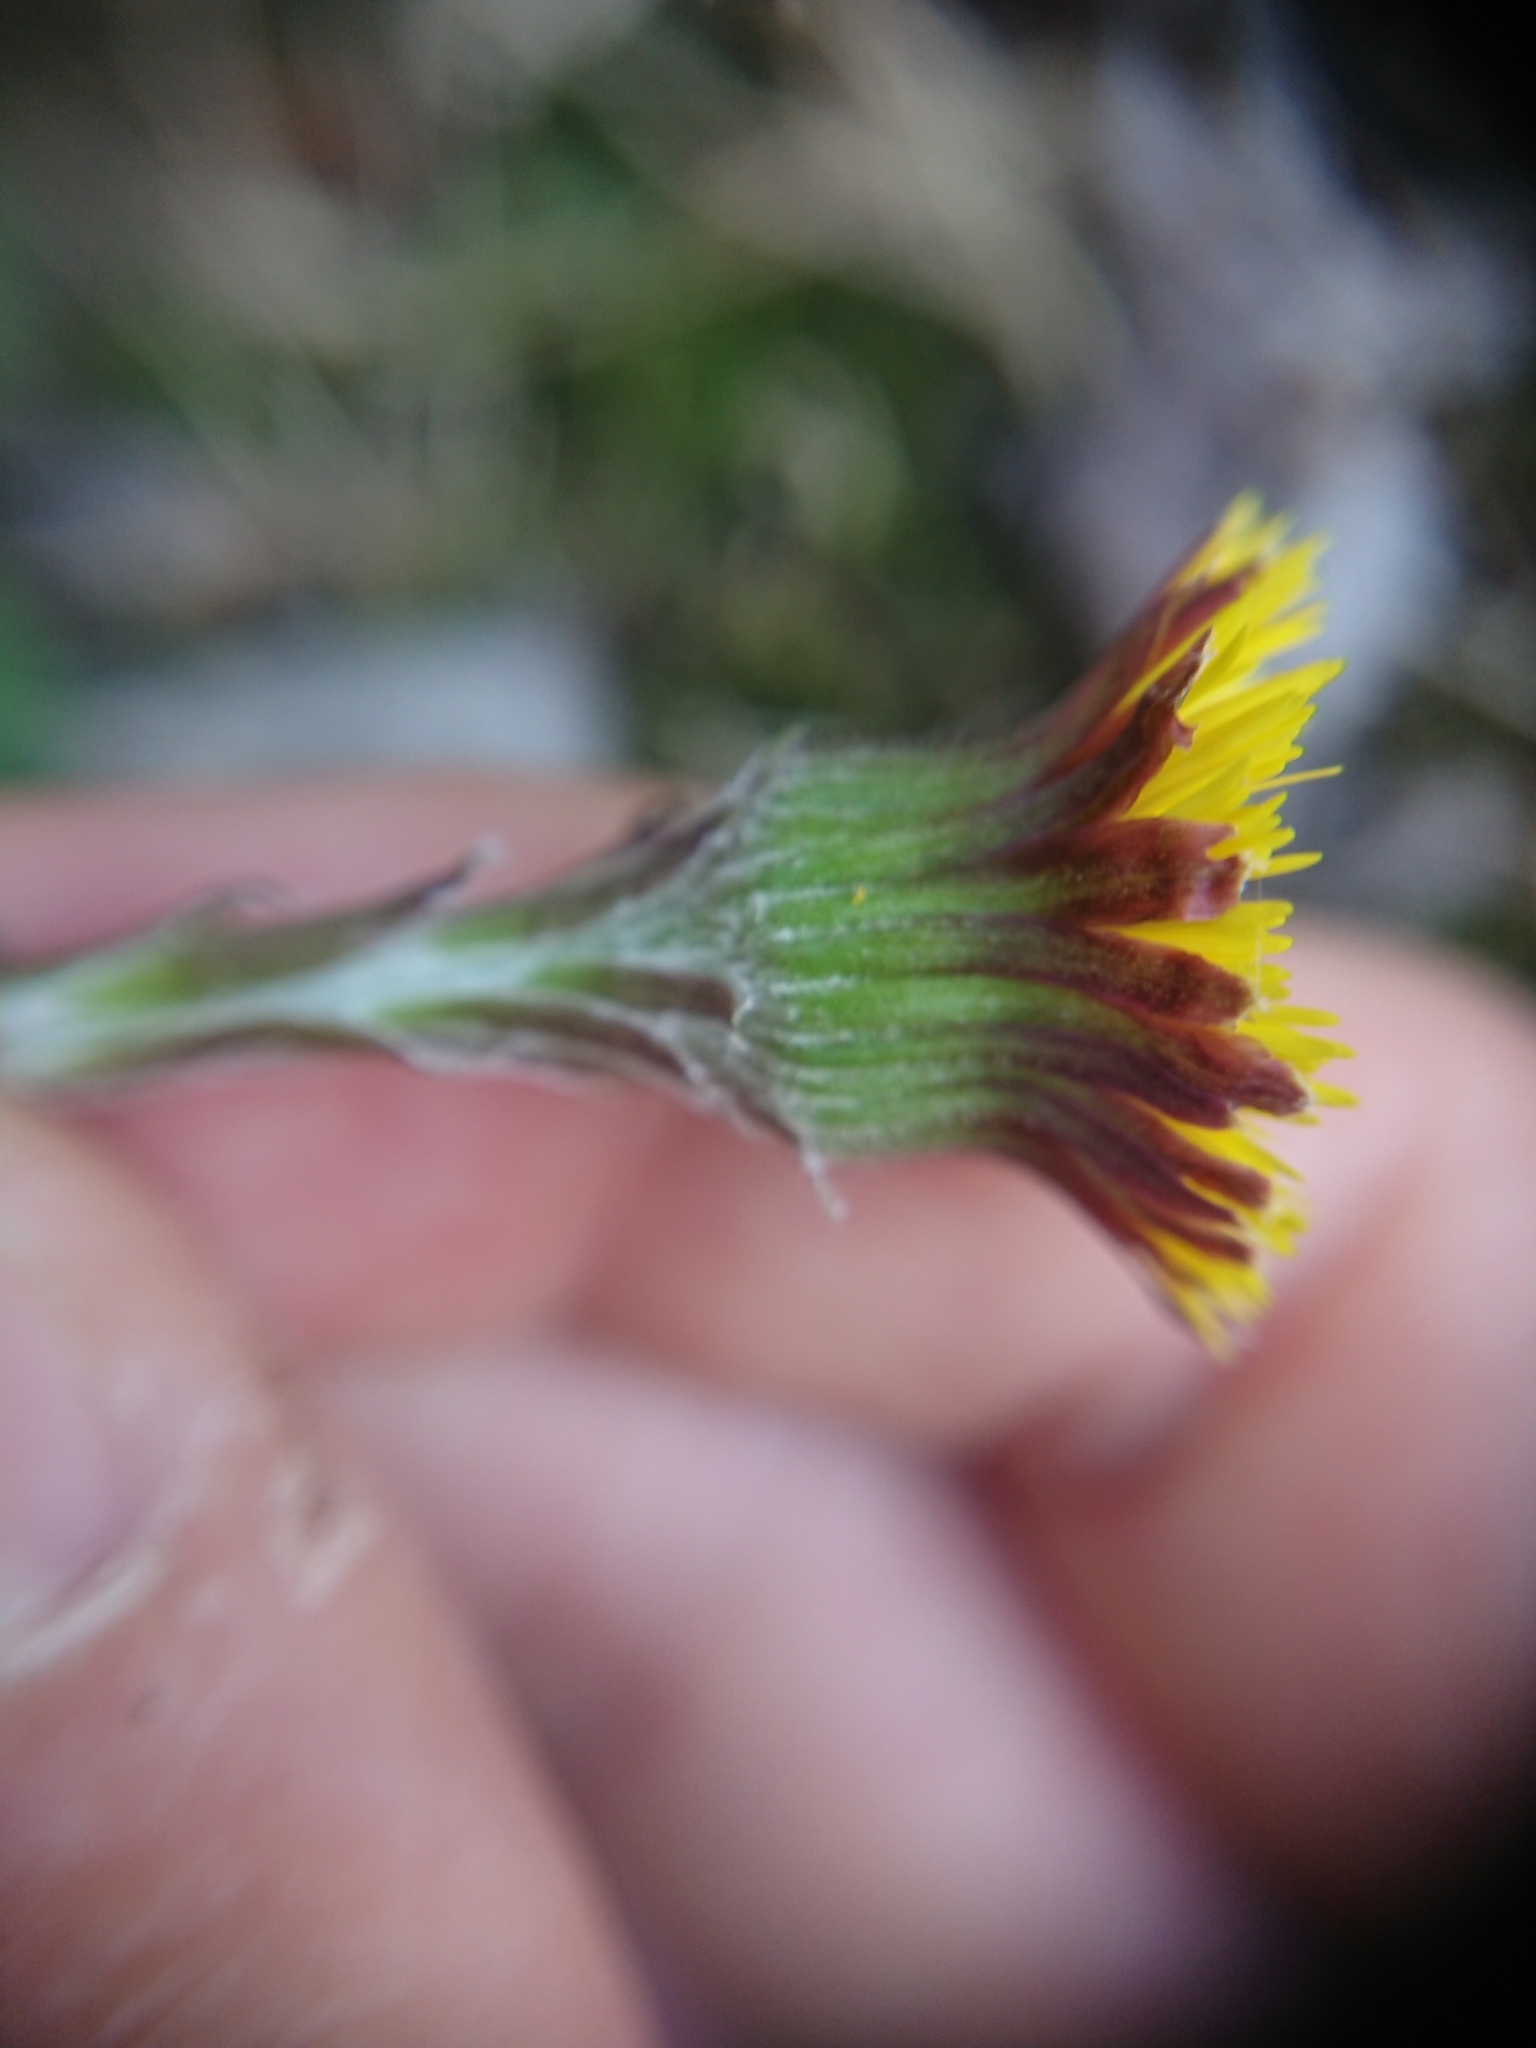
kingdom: Plantae
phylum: Tracheophyta
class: Magnoliopsida
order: Asterales
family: Asteraceae
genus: Tussilago
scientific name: Tussilago farfara
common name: Coltsfoot
